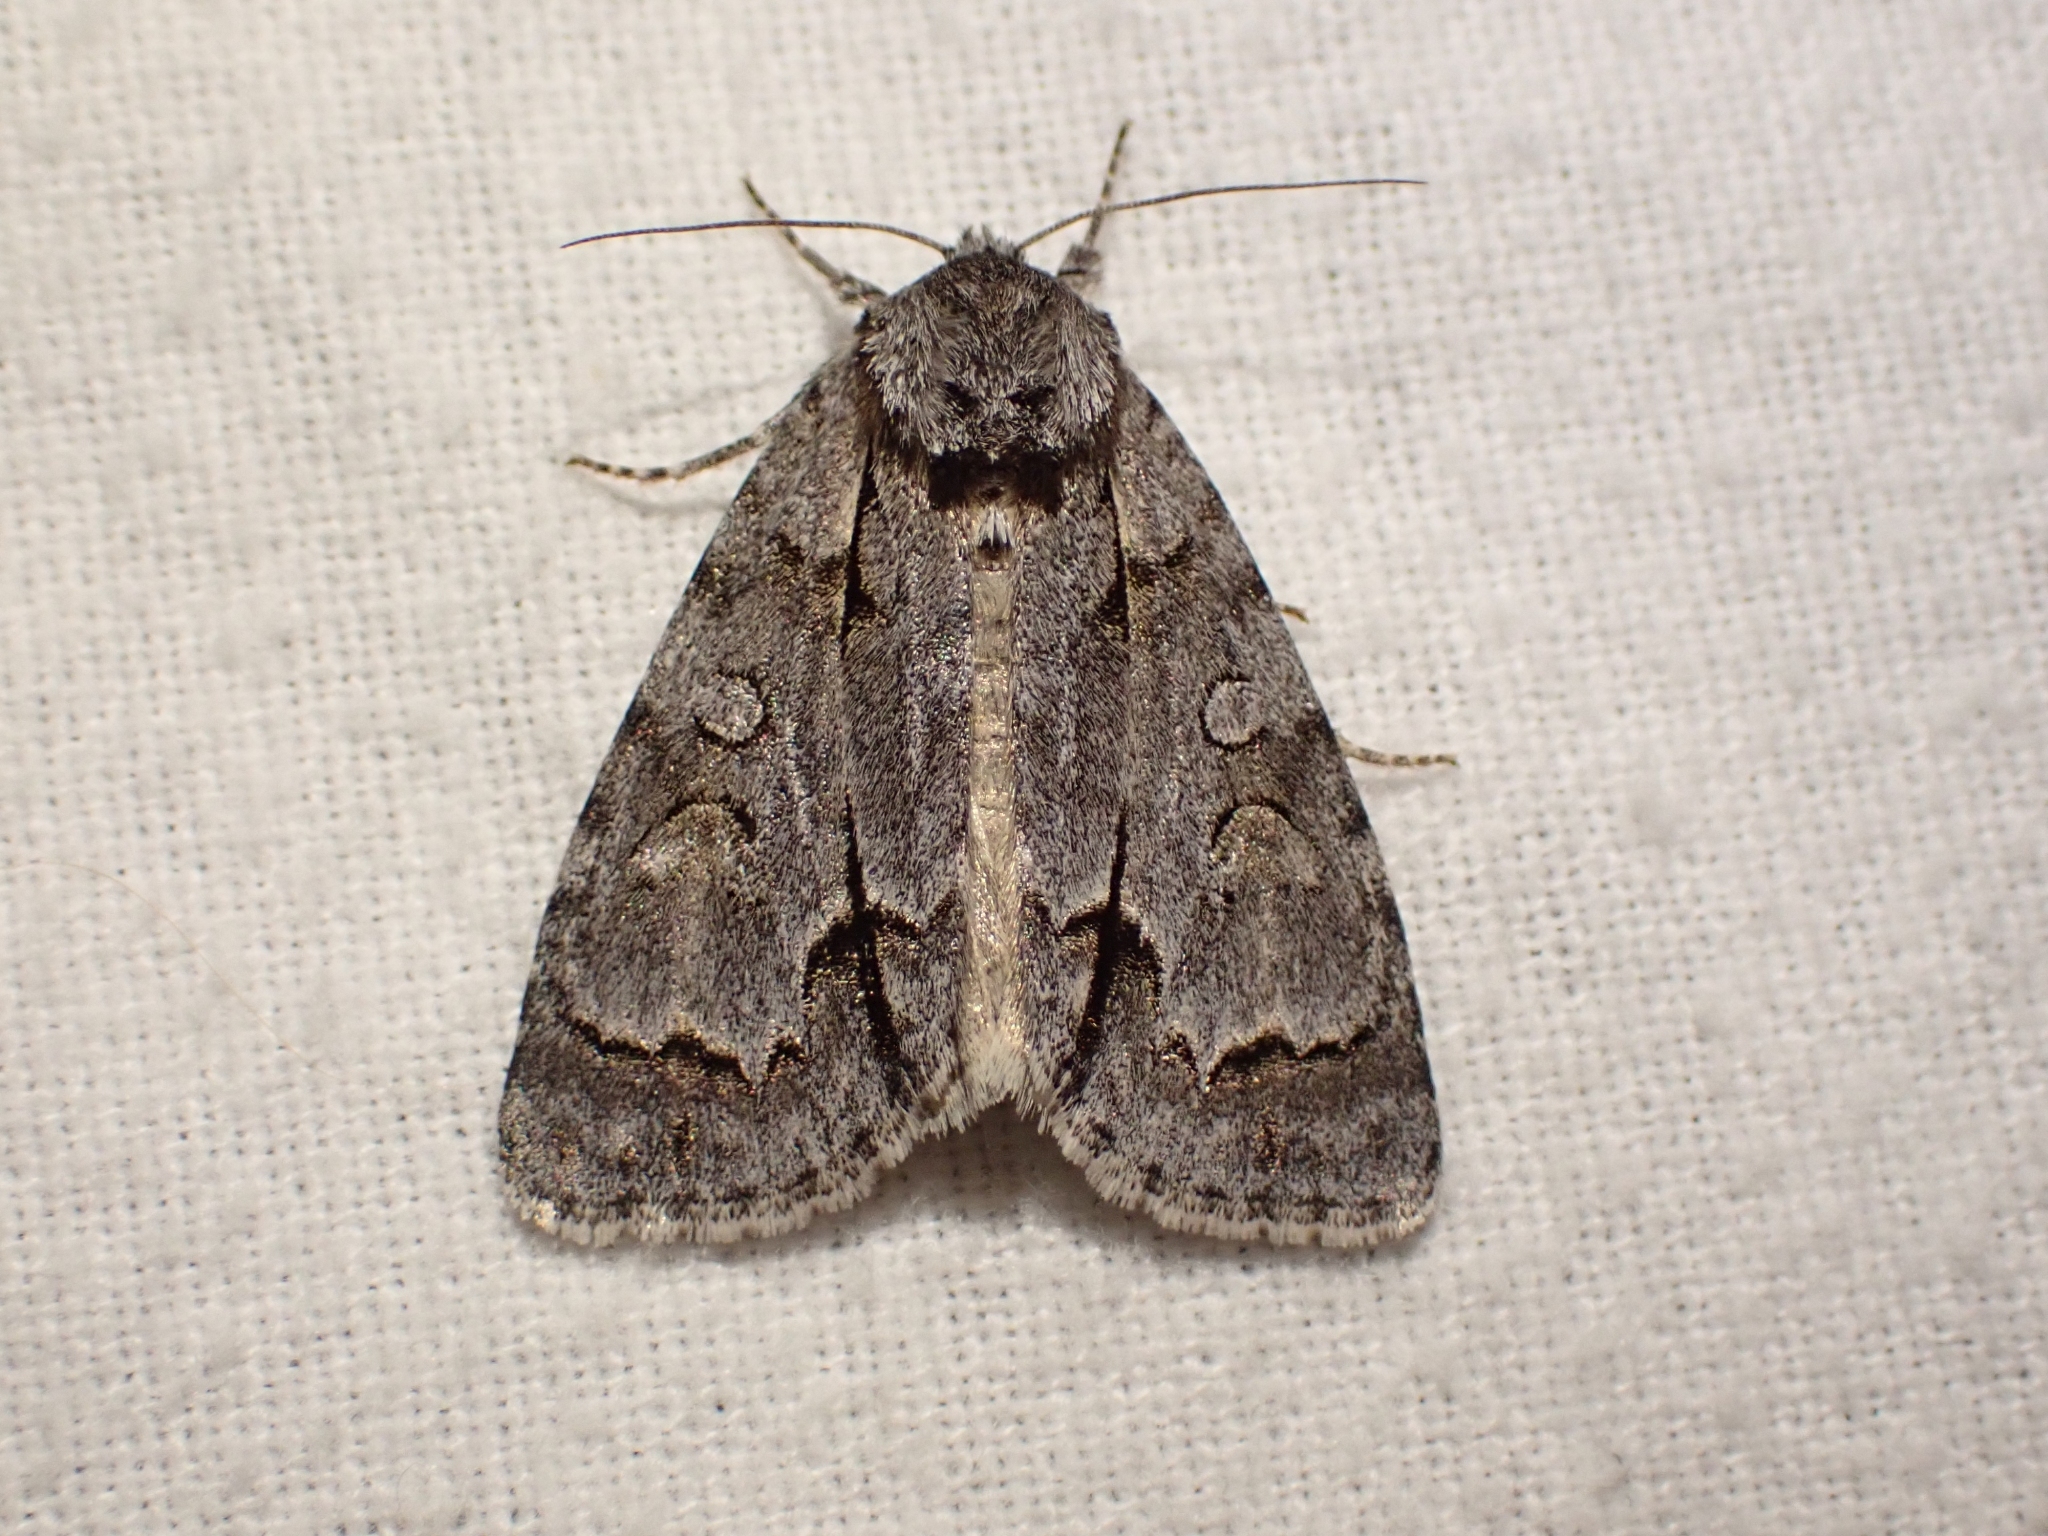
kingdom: Animalia
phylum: Arthropoda
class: Insecta
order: Lepidoptera
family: Noctuidae
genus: Acronicta
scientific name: Acronicta grisea
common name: Gray dagger
